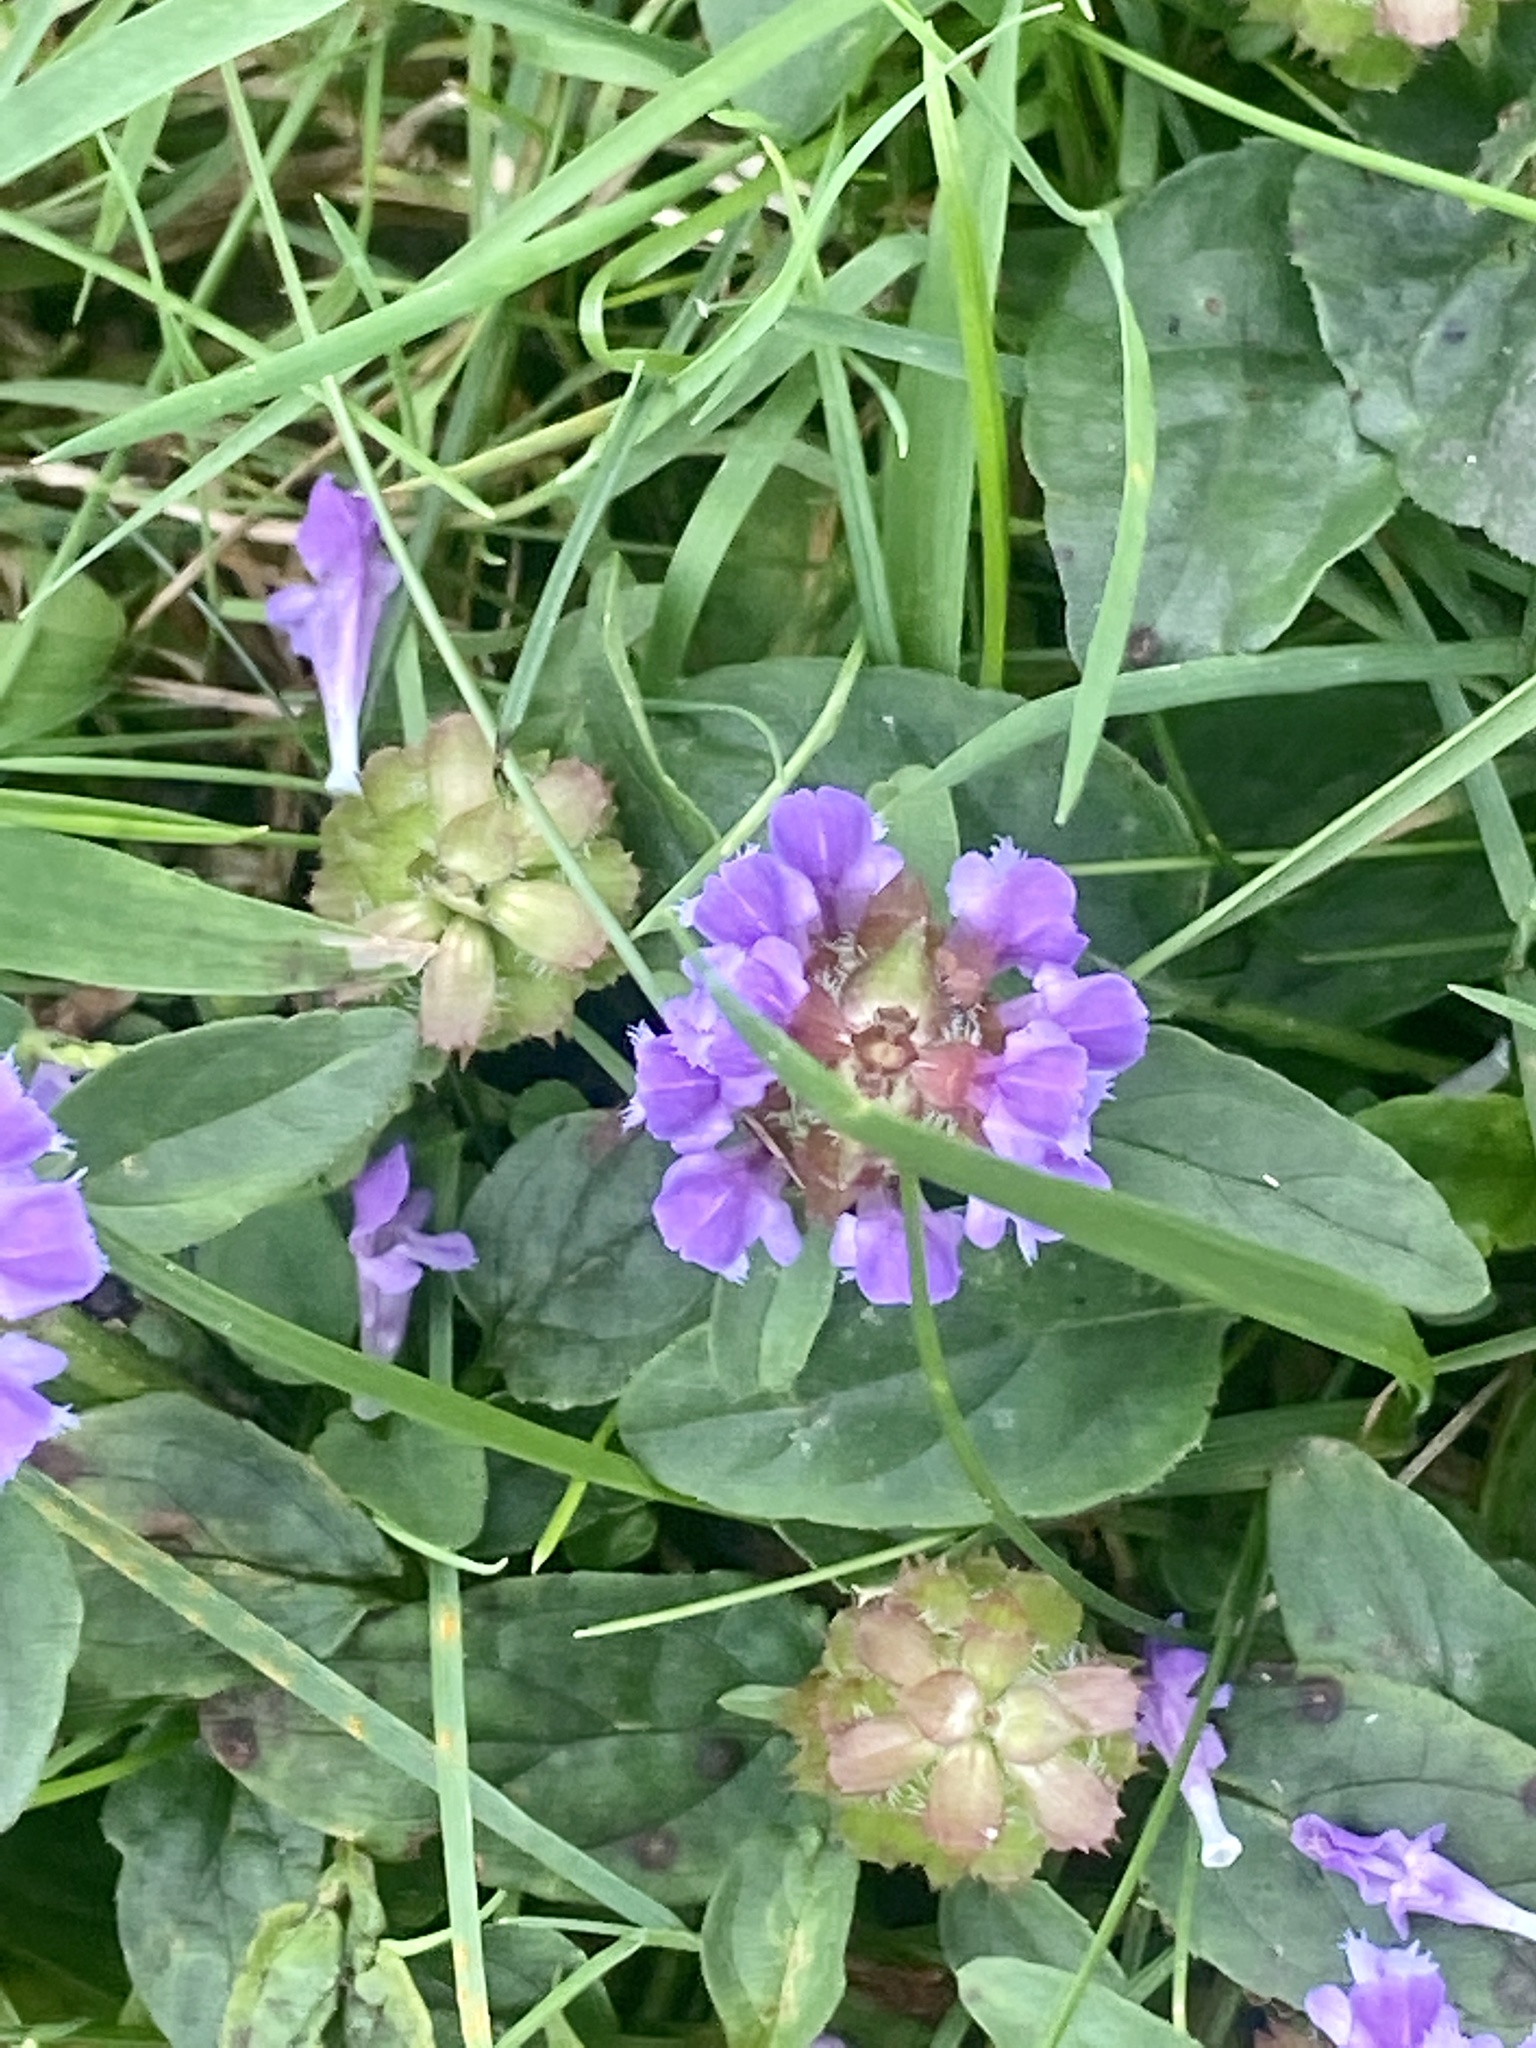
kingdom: Plantae
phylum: Tracheophyta
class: Magnoliopsida
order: Lamiales
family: Lamiaceae
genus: Prunella
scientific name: Prunella vulgaris
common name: Heal-all
